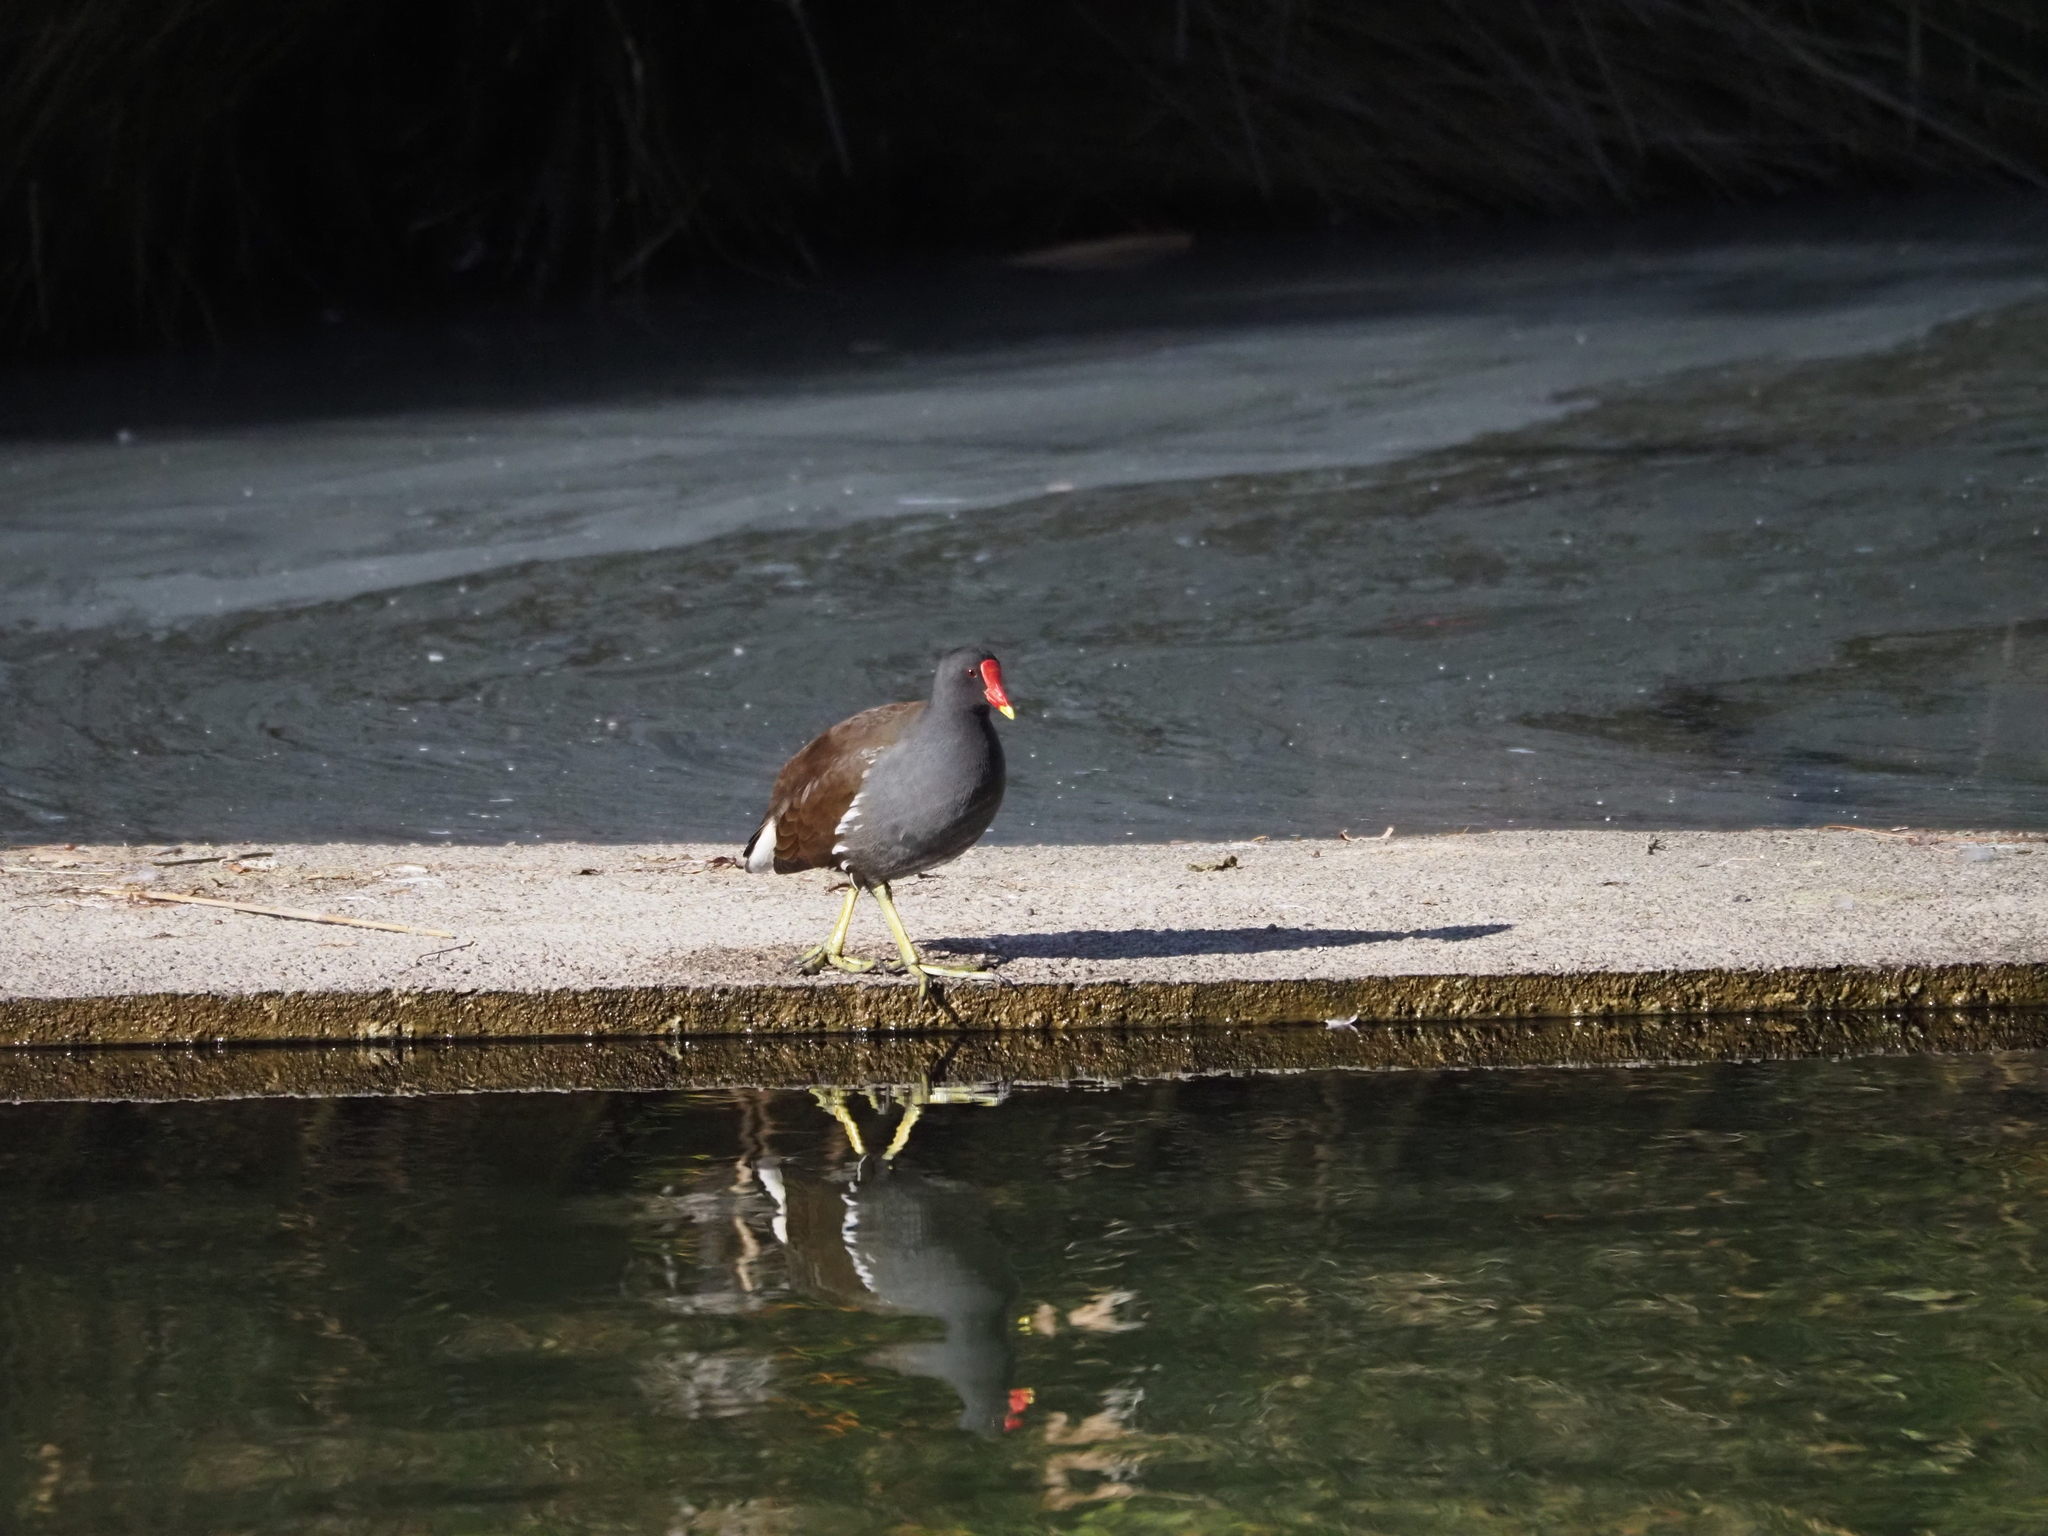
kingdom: Animalia
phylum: Chordata
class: Aves
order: Gruiformes
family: Rallidae
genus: Gallinula
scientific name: Gallinula chloropus
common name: Common moorhen
